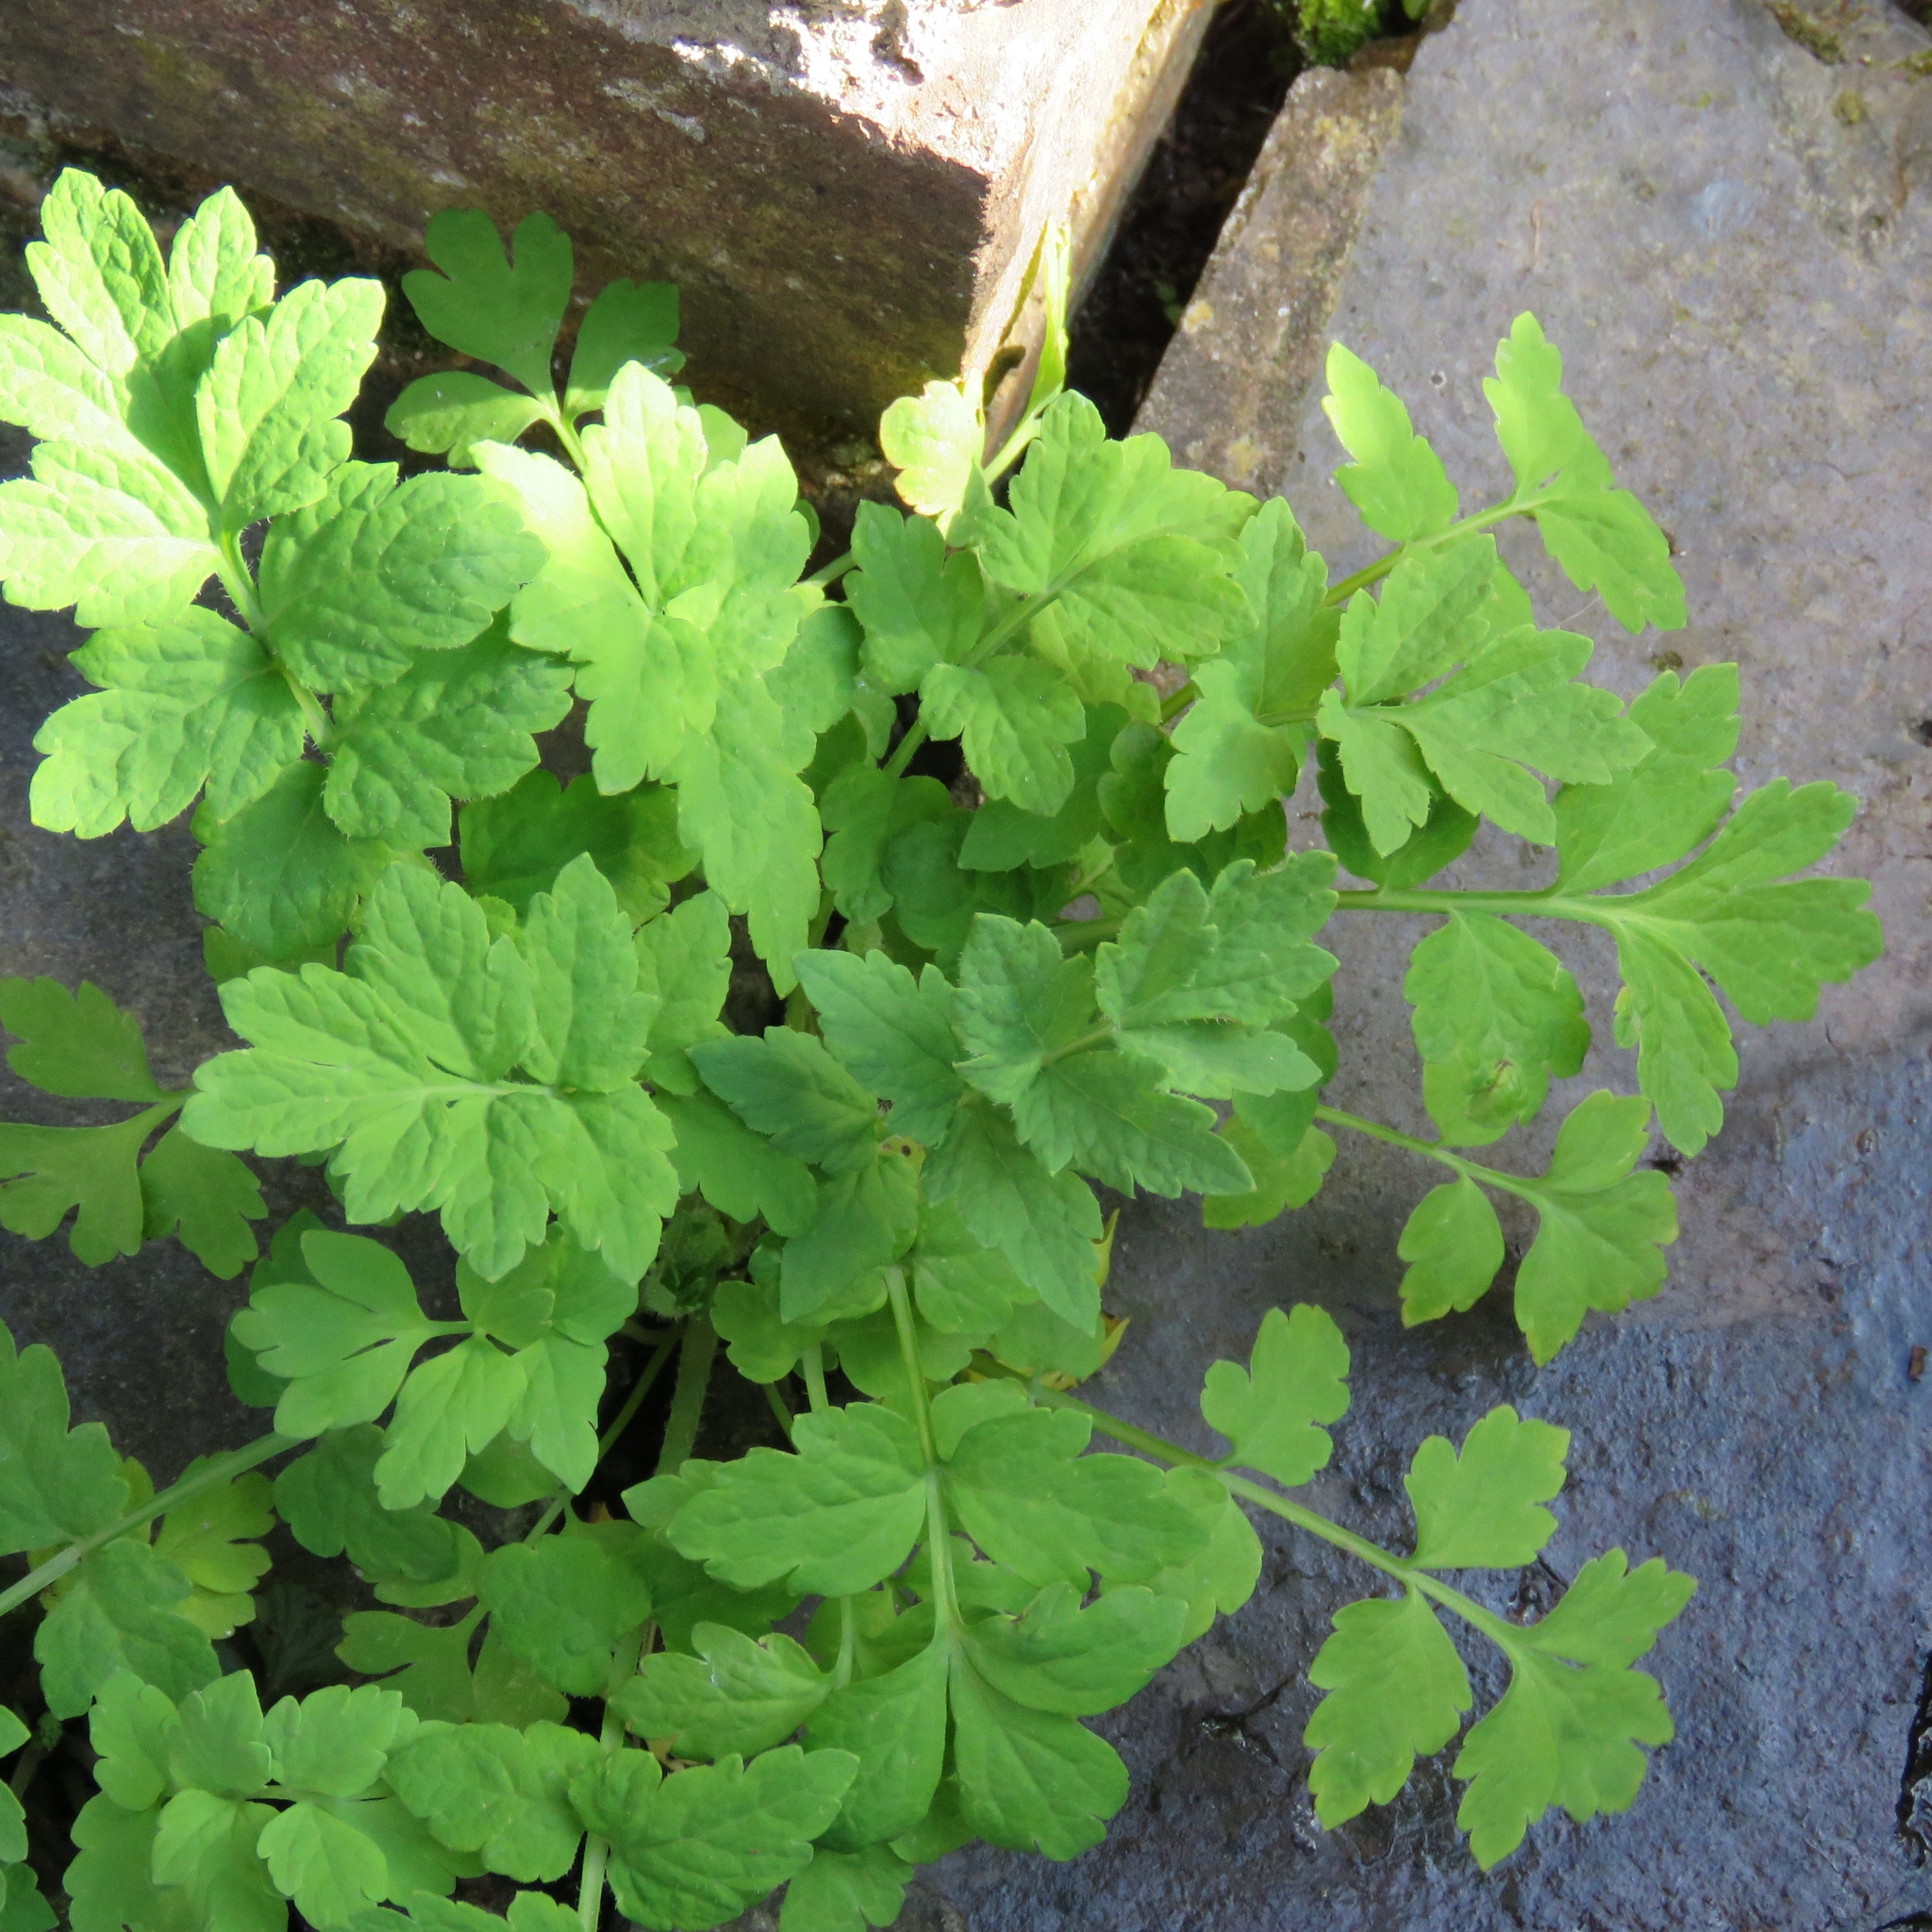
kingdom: Plantae
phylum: Tracheophyta
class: Magnoliopsida
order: Ranunculales
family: Papaveraceae
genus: Papaver
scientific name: Papaver cambricum
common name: Poppy
